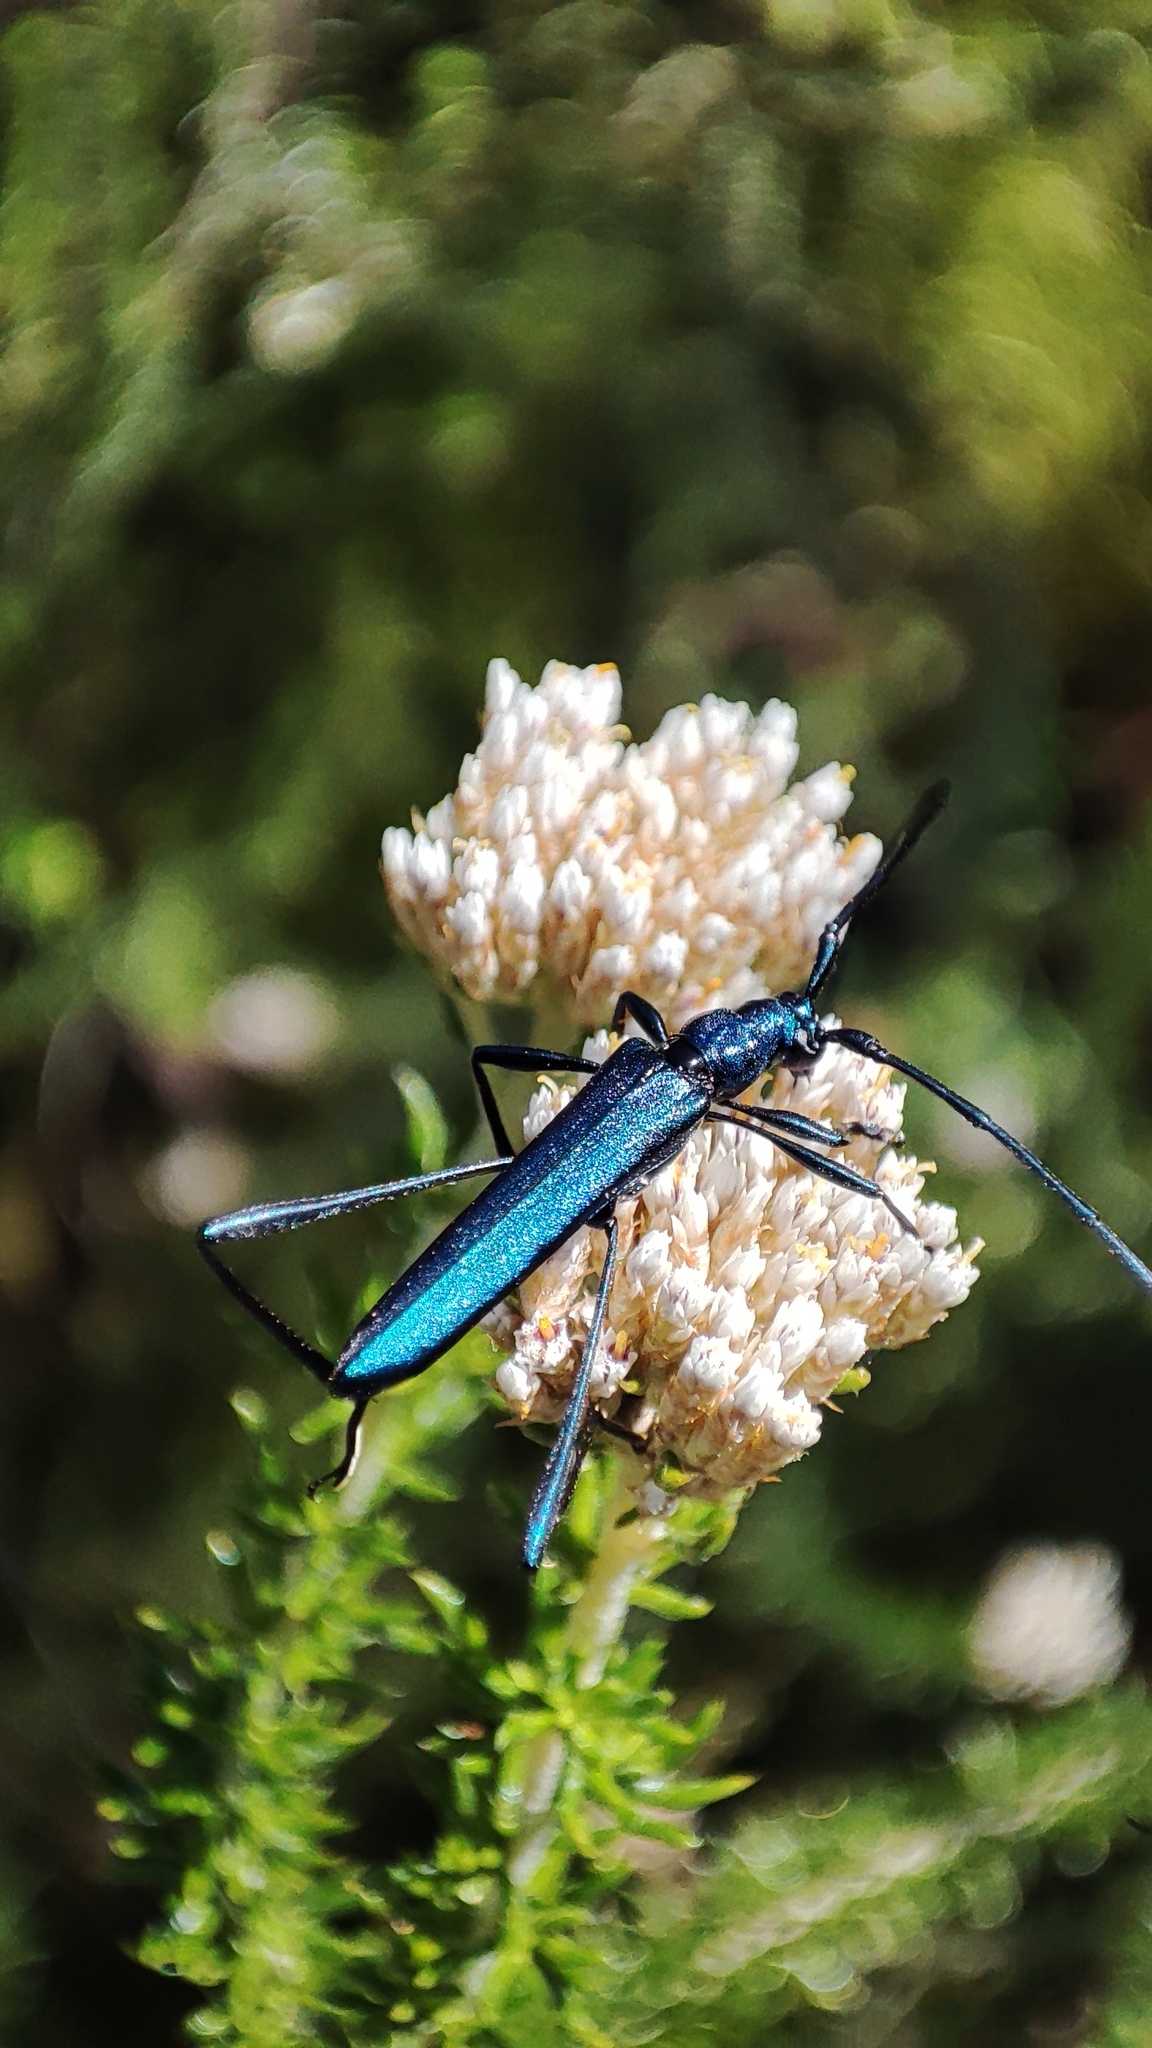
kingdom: Animalia
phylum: Arthropoda
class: Insecta
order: Coleoptera
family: Cerambycidae
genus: Promeces
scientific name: Promeces longipes
